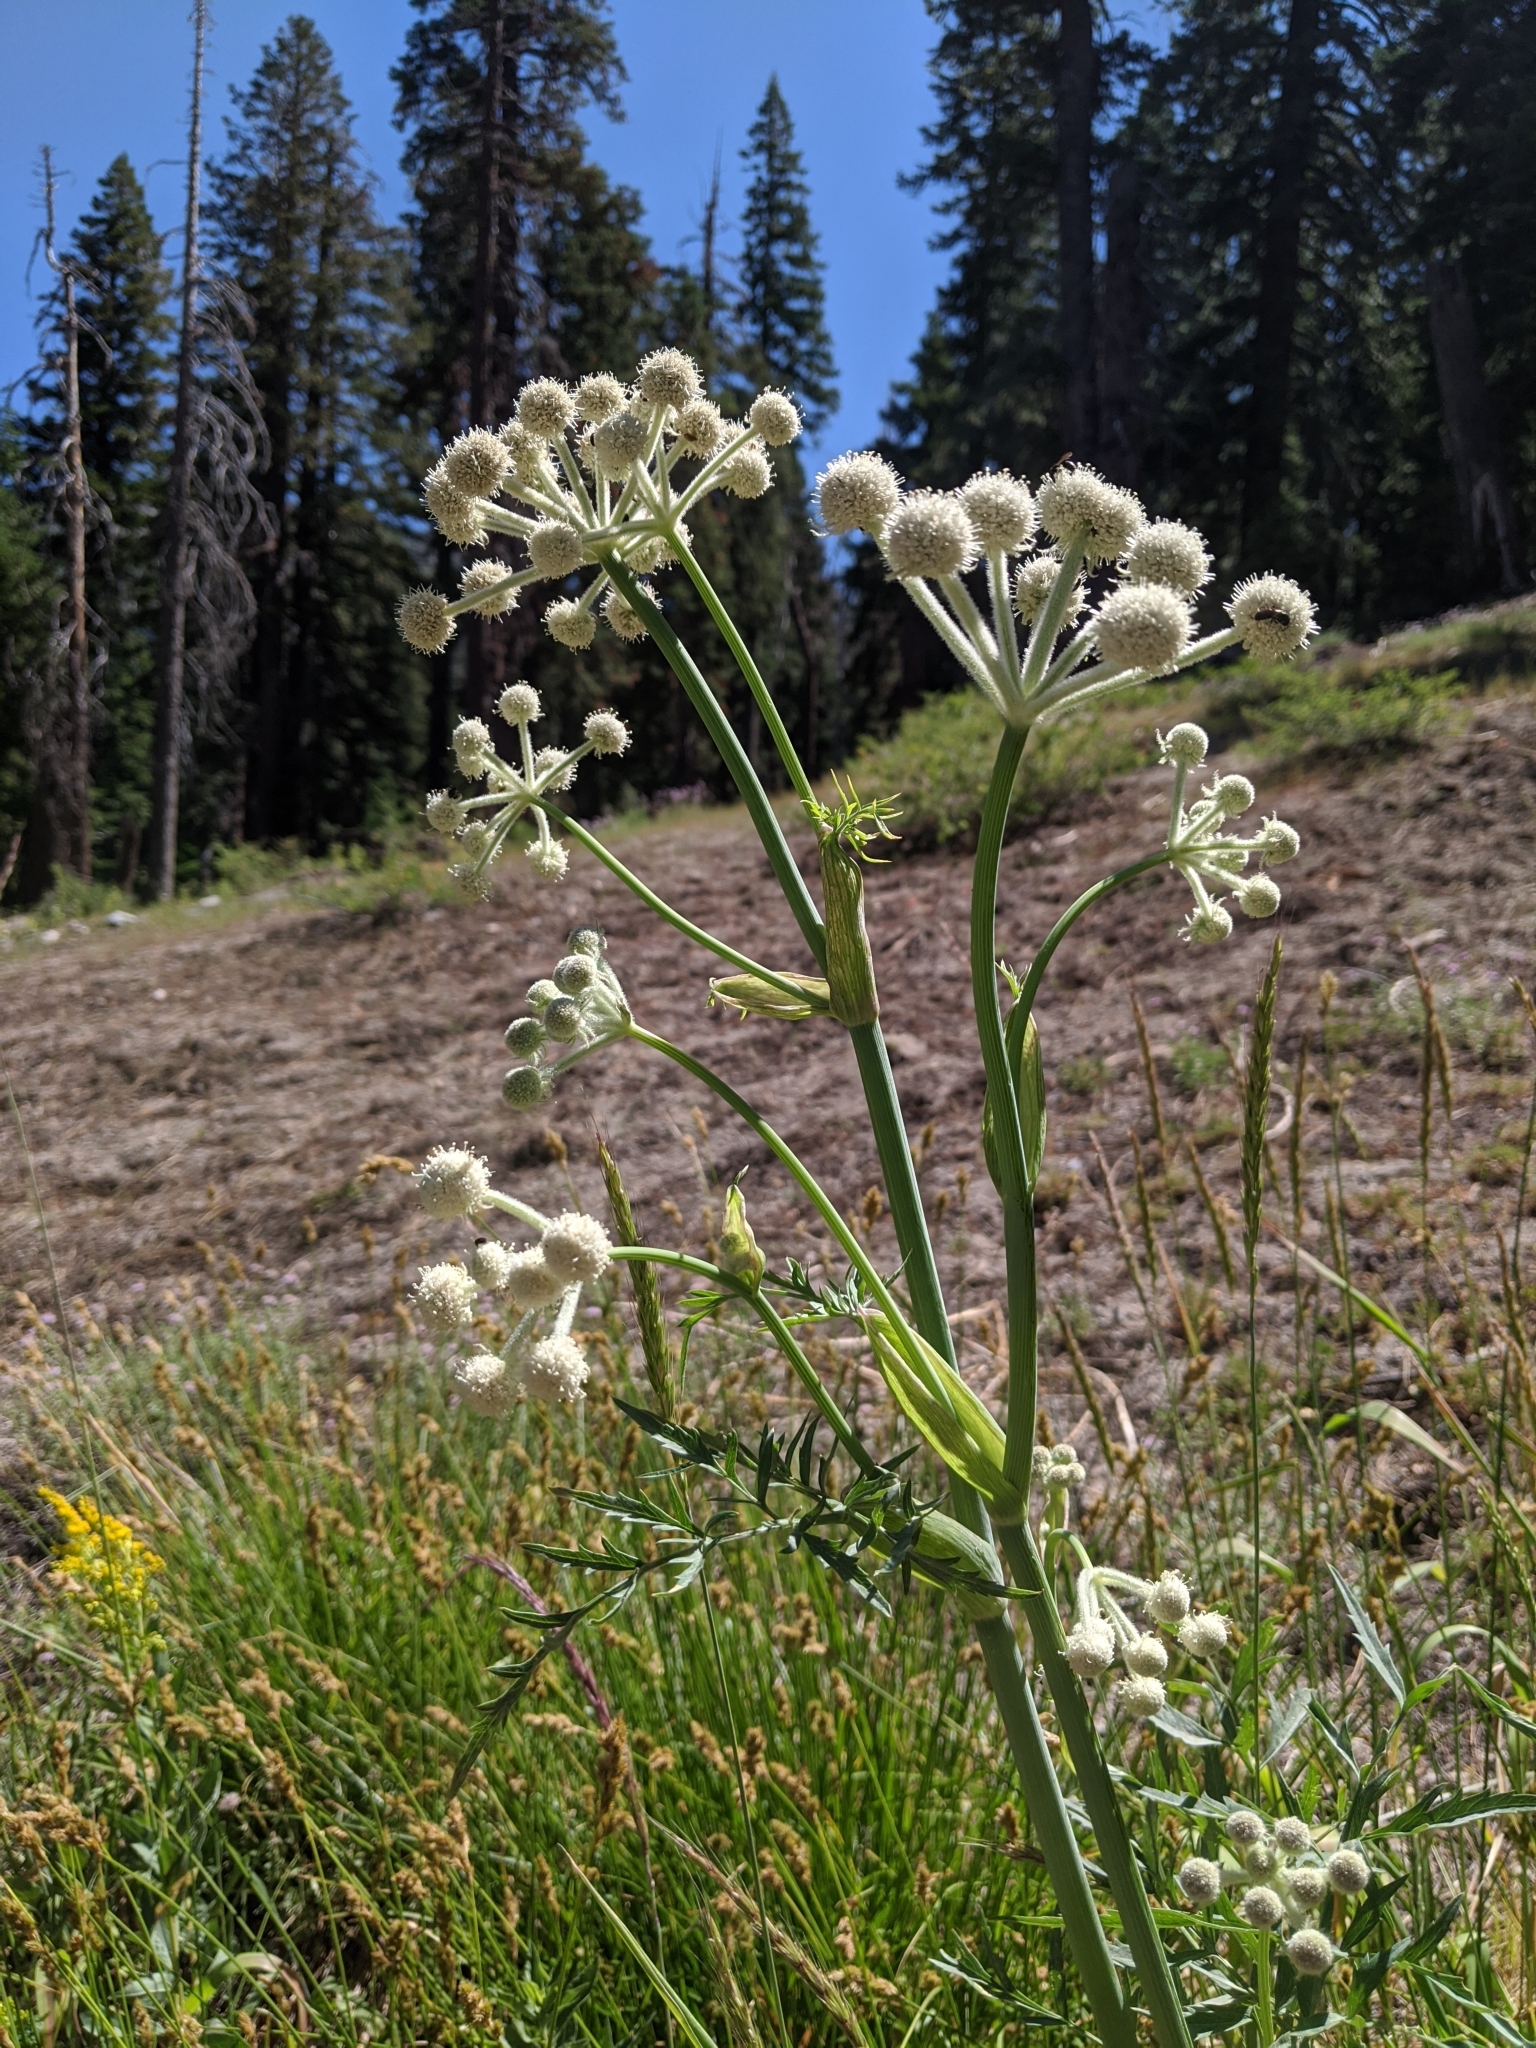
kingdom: Plantae
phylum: Tracheophyta
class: Magnoliopsida
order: Apiales
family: Apiaceae
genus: Angelica
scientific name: Angelica capitellata
